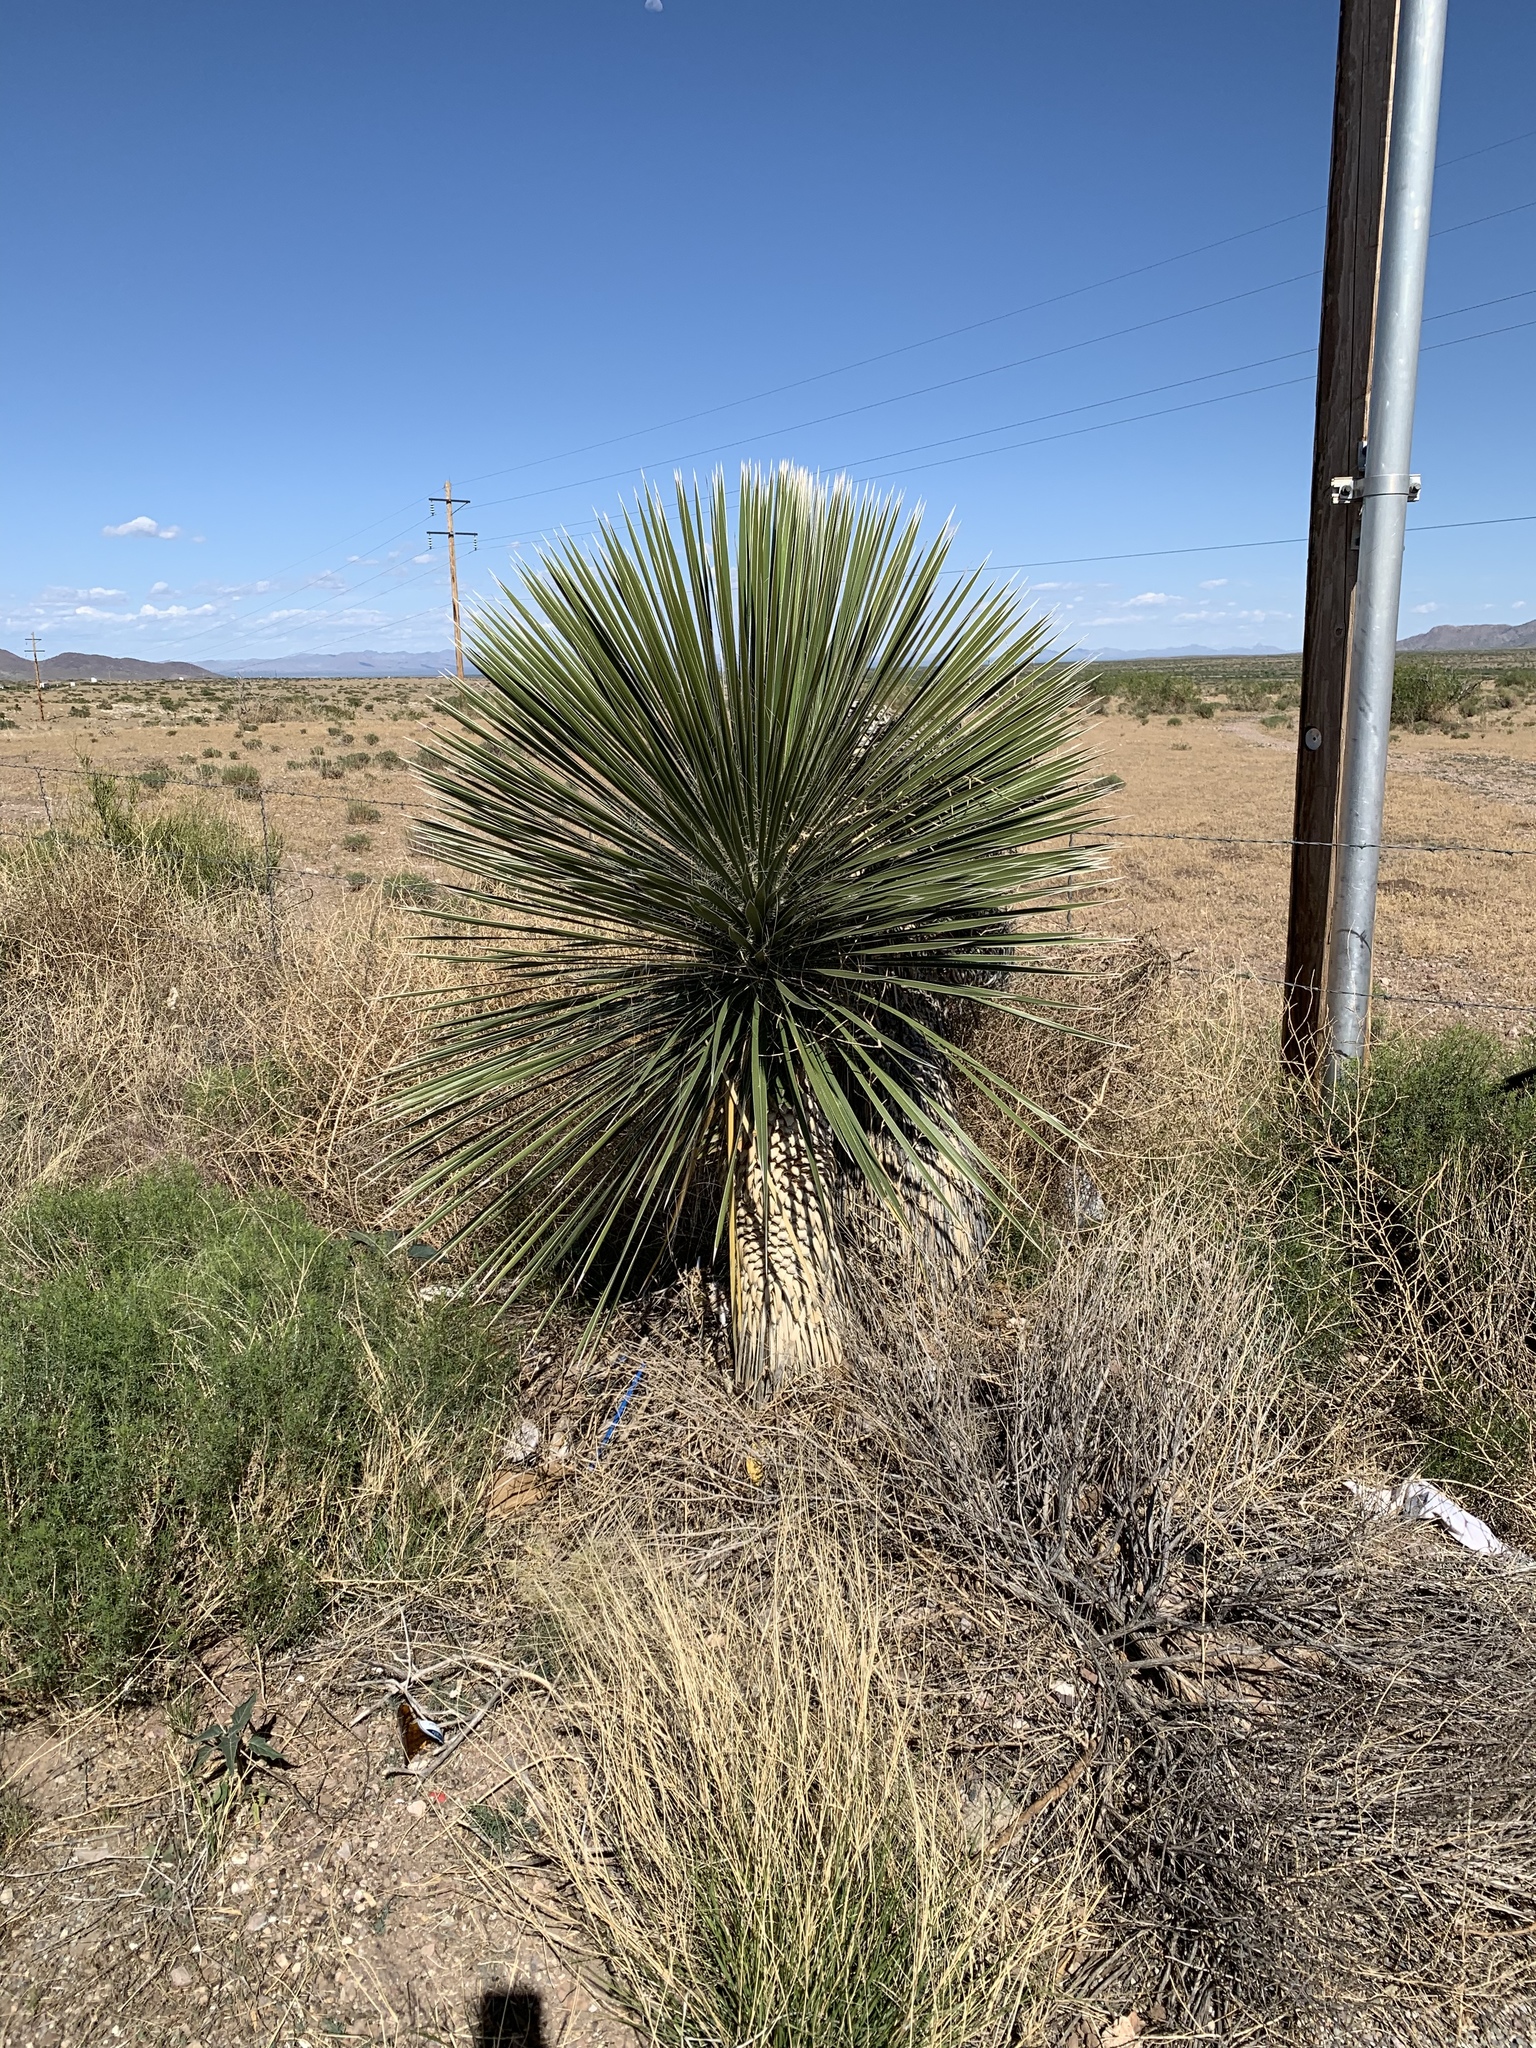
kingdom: Plantae
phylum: Tracheophyta
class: Liliopsida
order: Asparagales
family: Asparagaceae
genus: Yucca
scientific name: Yucca elata
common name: Palmella
